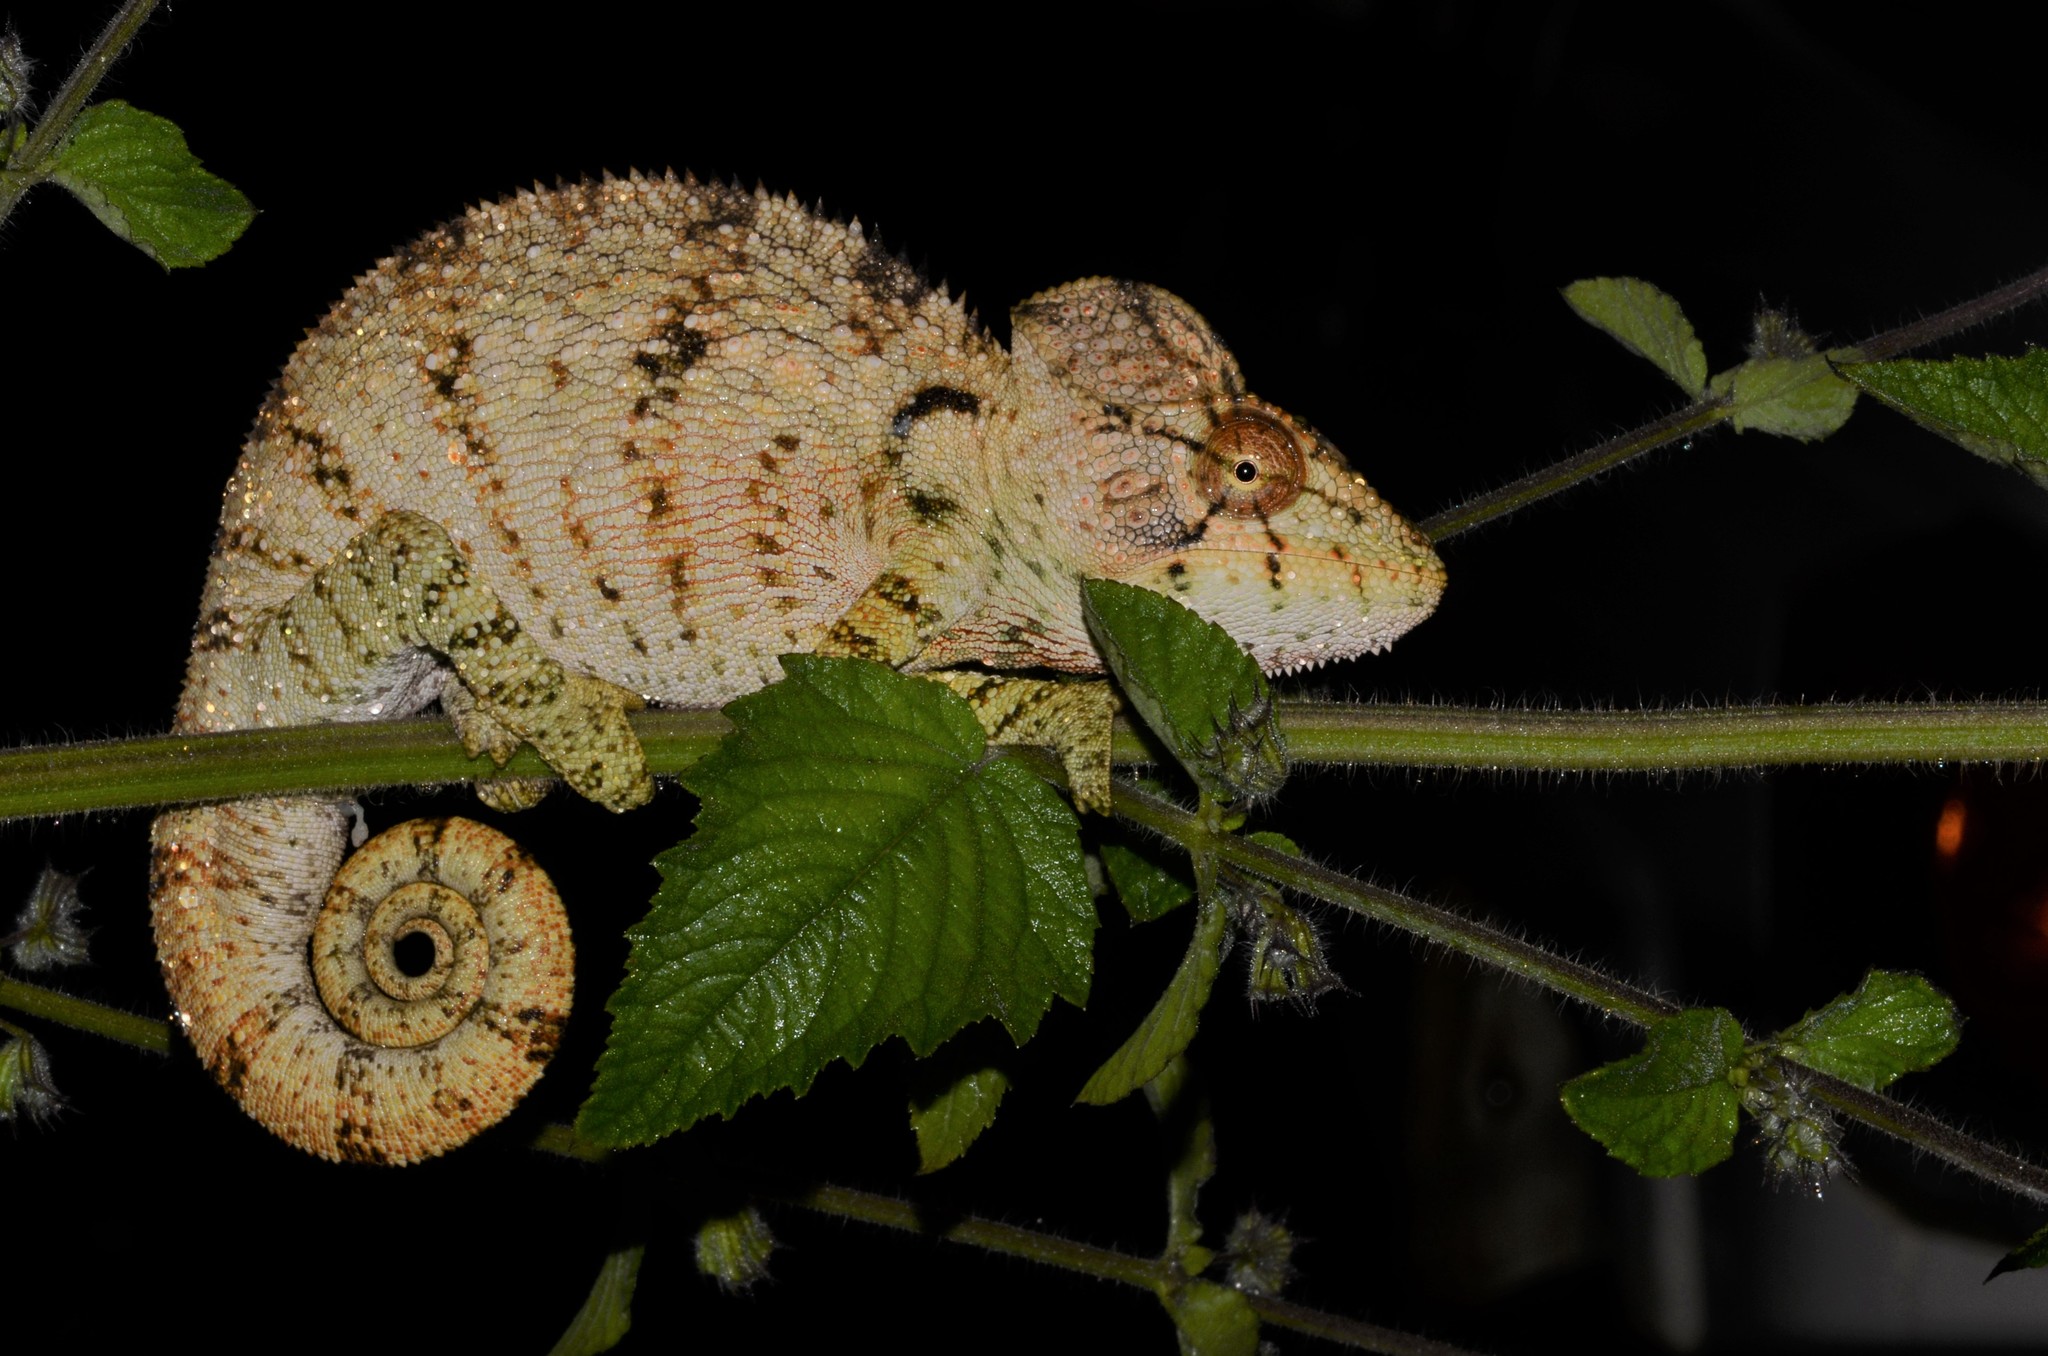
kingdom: Animalia
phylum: Chordata
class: Squamata
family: Chamaeleonidae
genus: Furcifer
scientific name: Furcifer oustaleti
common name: Oustalet's chameleon
